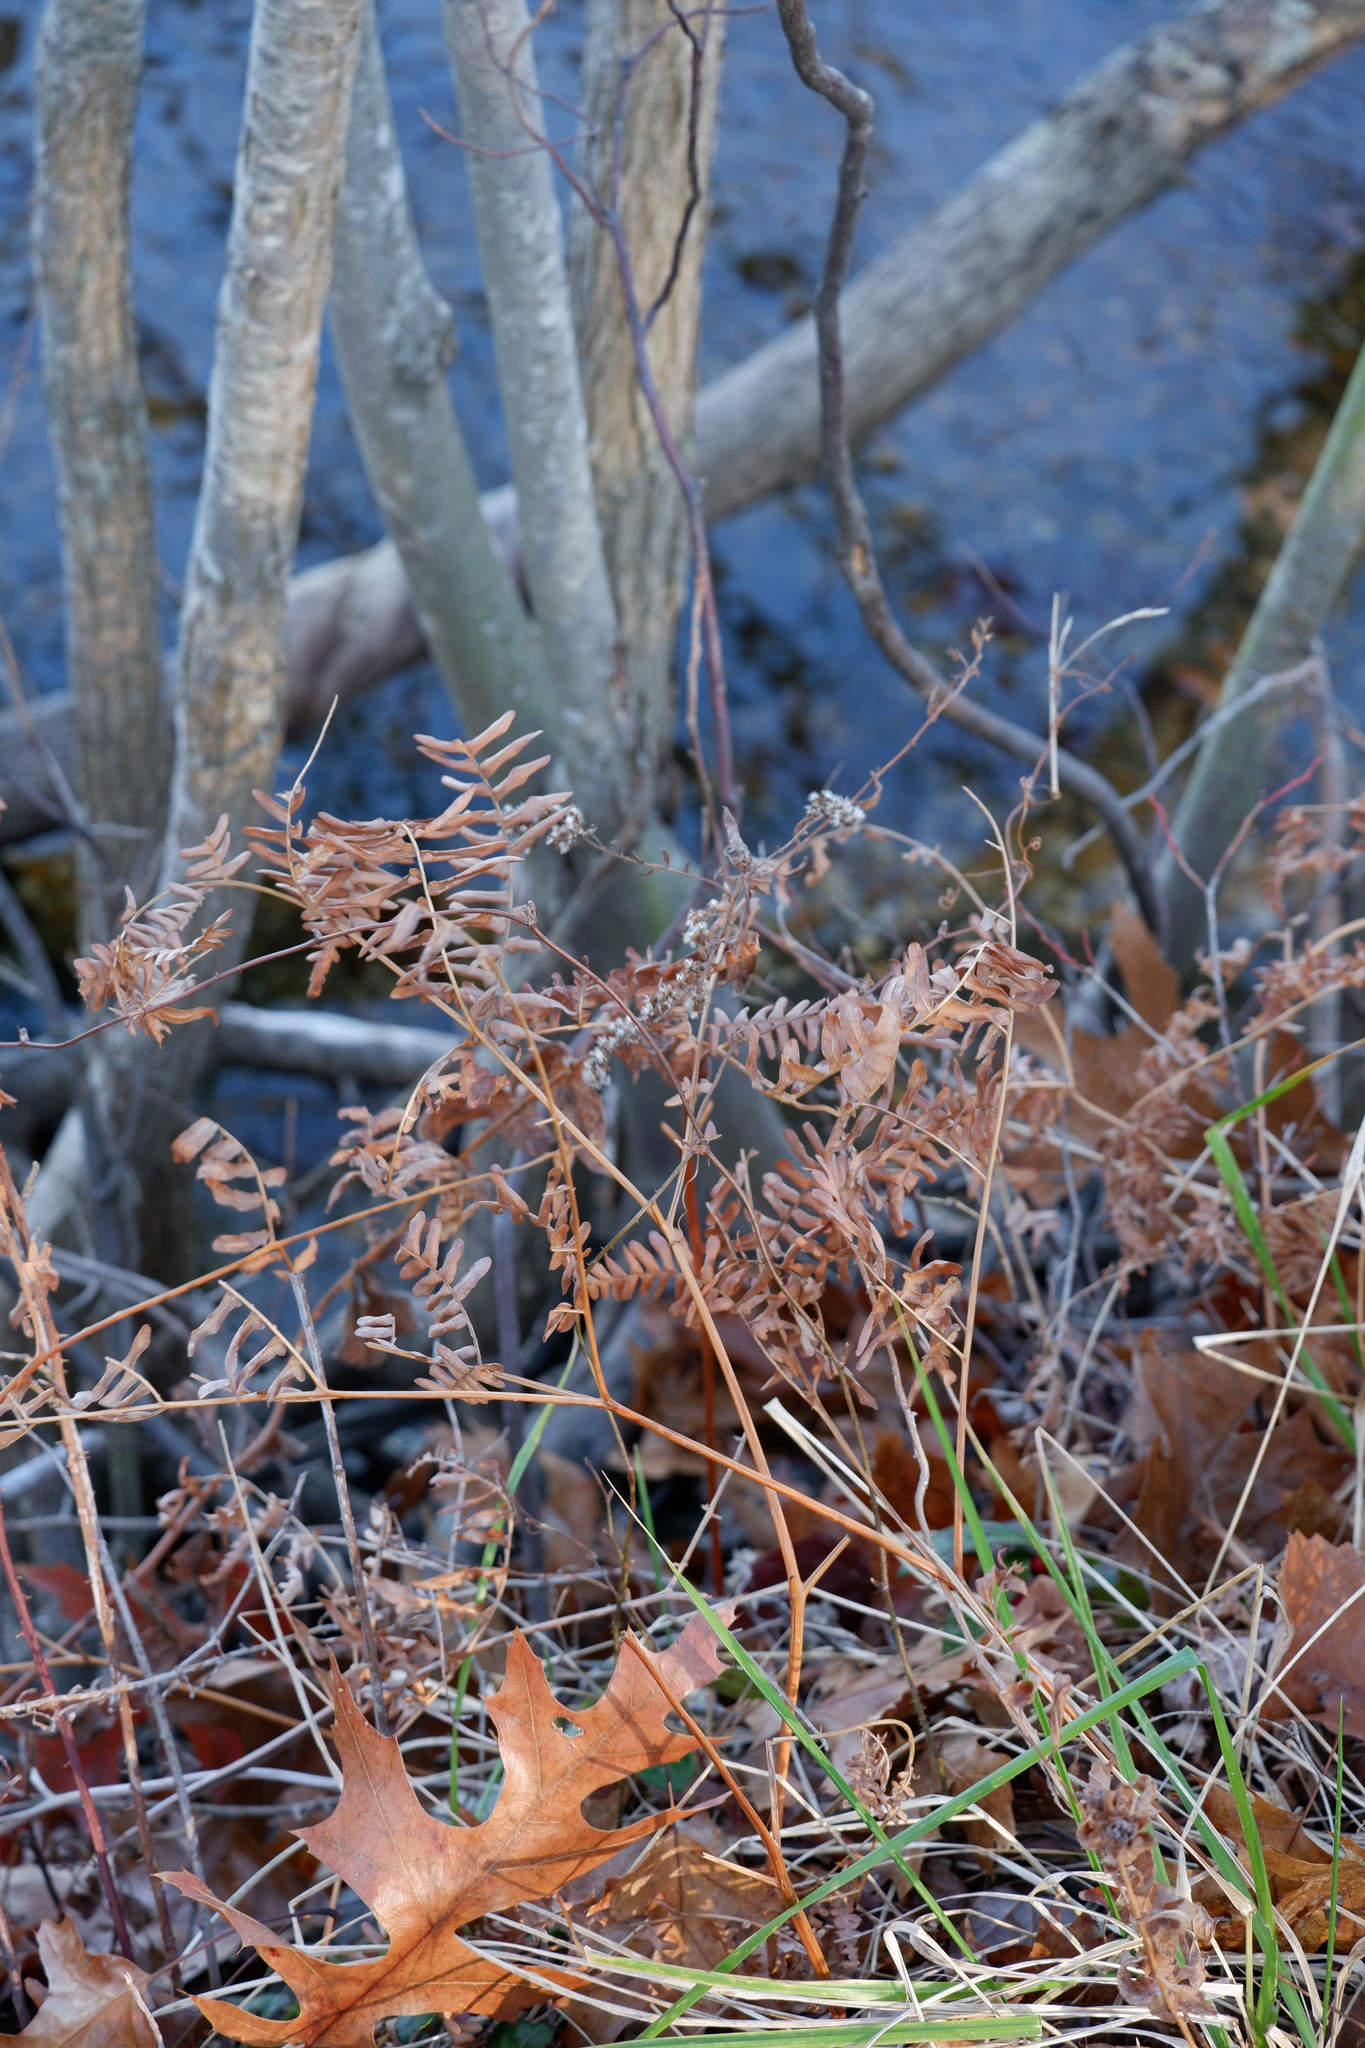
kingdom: Plantae
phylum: Tracheophyta
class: Polypodiopsida
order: Polypodiales
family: Dennstaedtiaceae
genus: Pteridium
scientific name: Pteridium aquilinum
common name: Bracken
